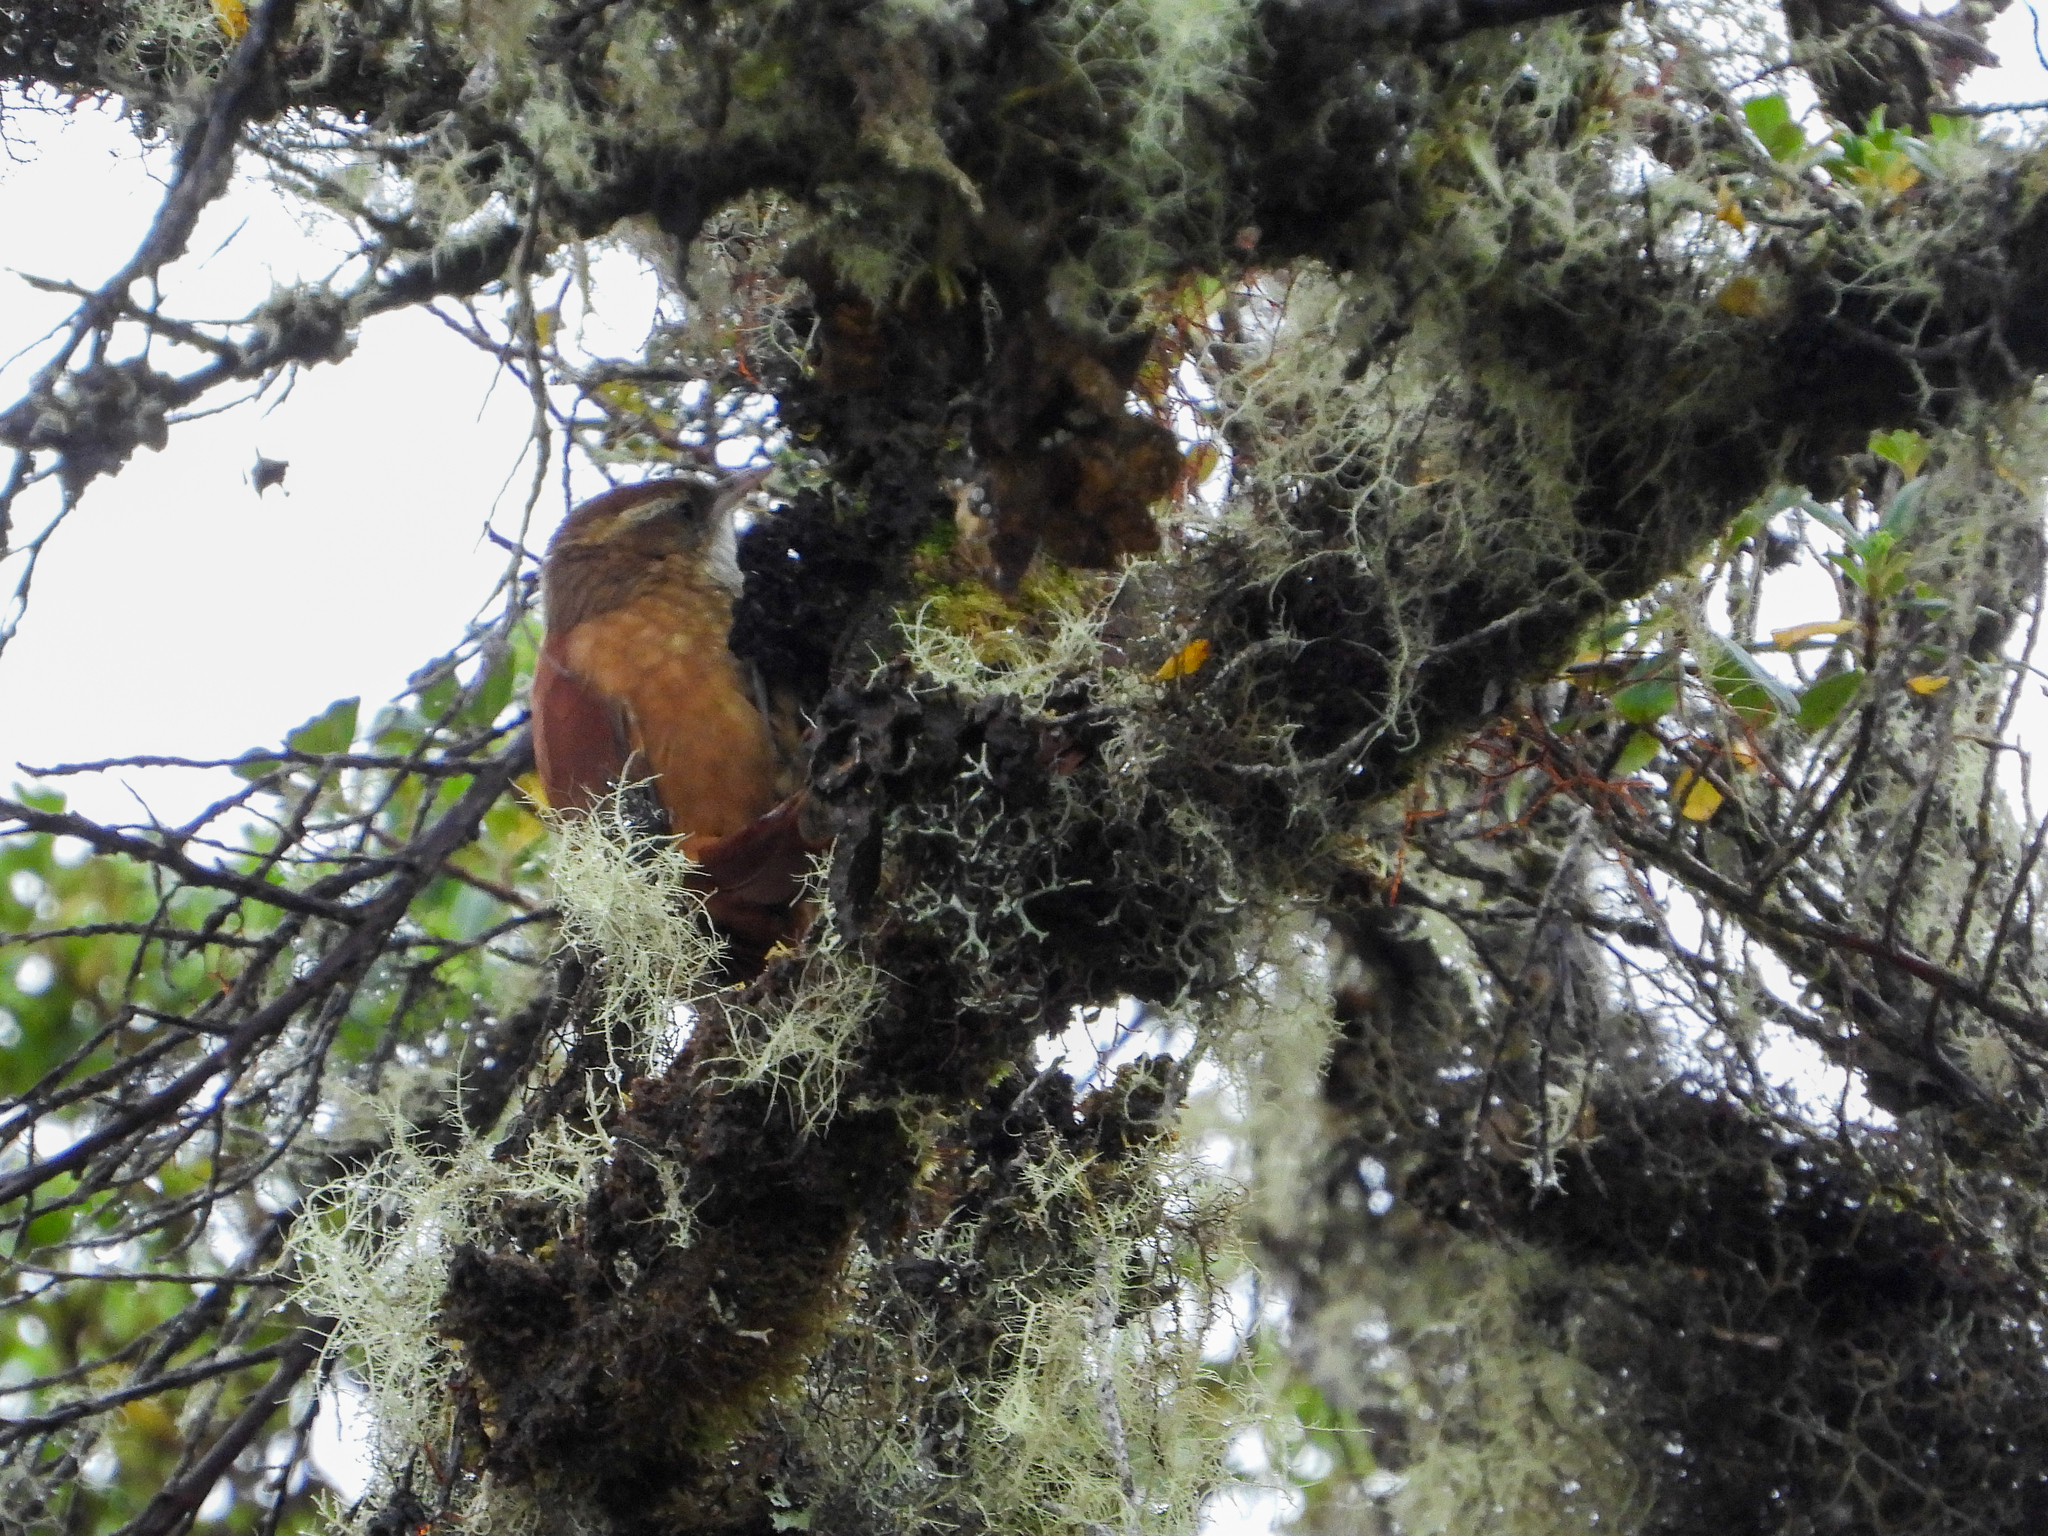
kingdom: Animalia
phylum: Chordata
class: Aves
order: Passeriformes
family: Furnariidae
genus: Margarornis
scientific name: Margarornis rubiginosus
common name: Ruddy treerunner
